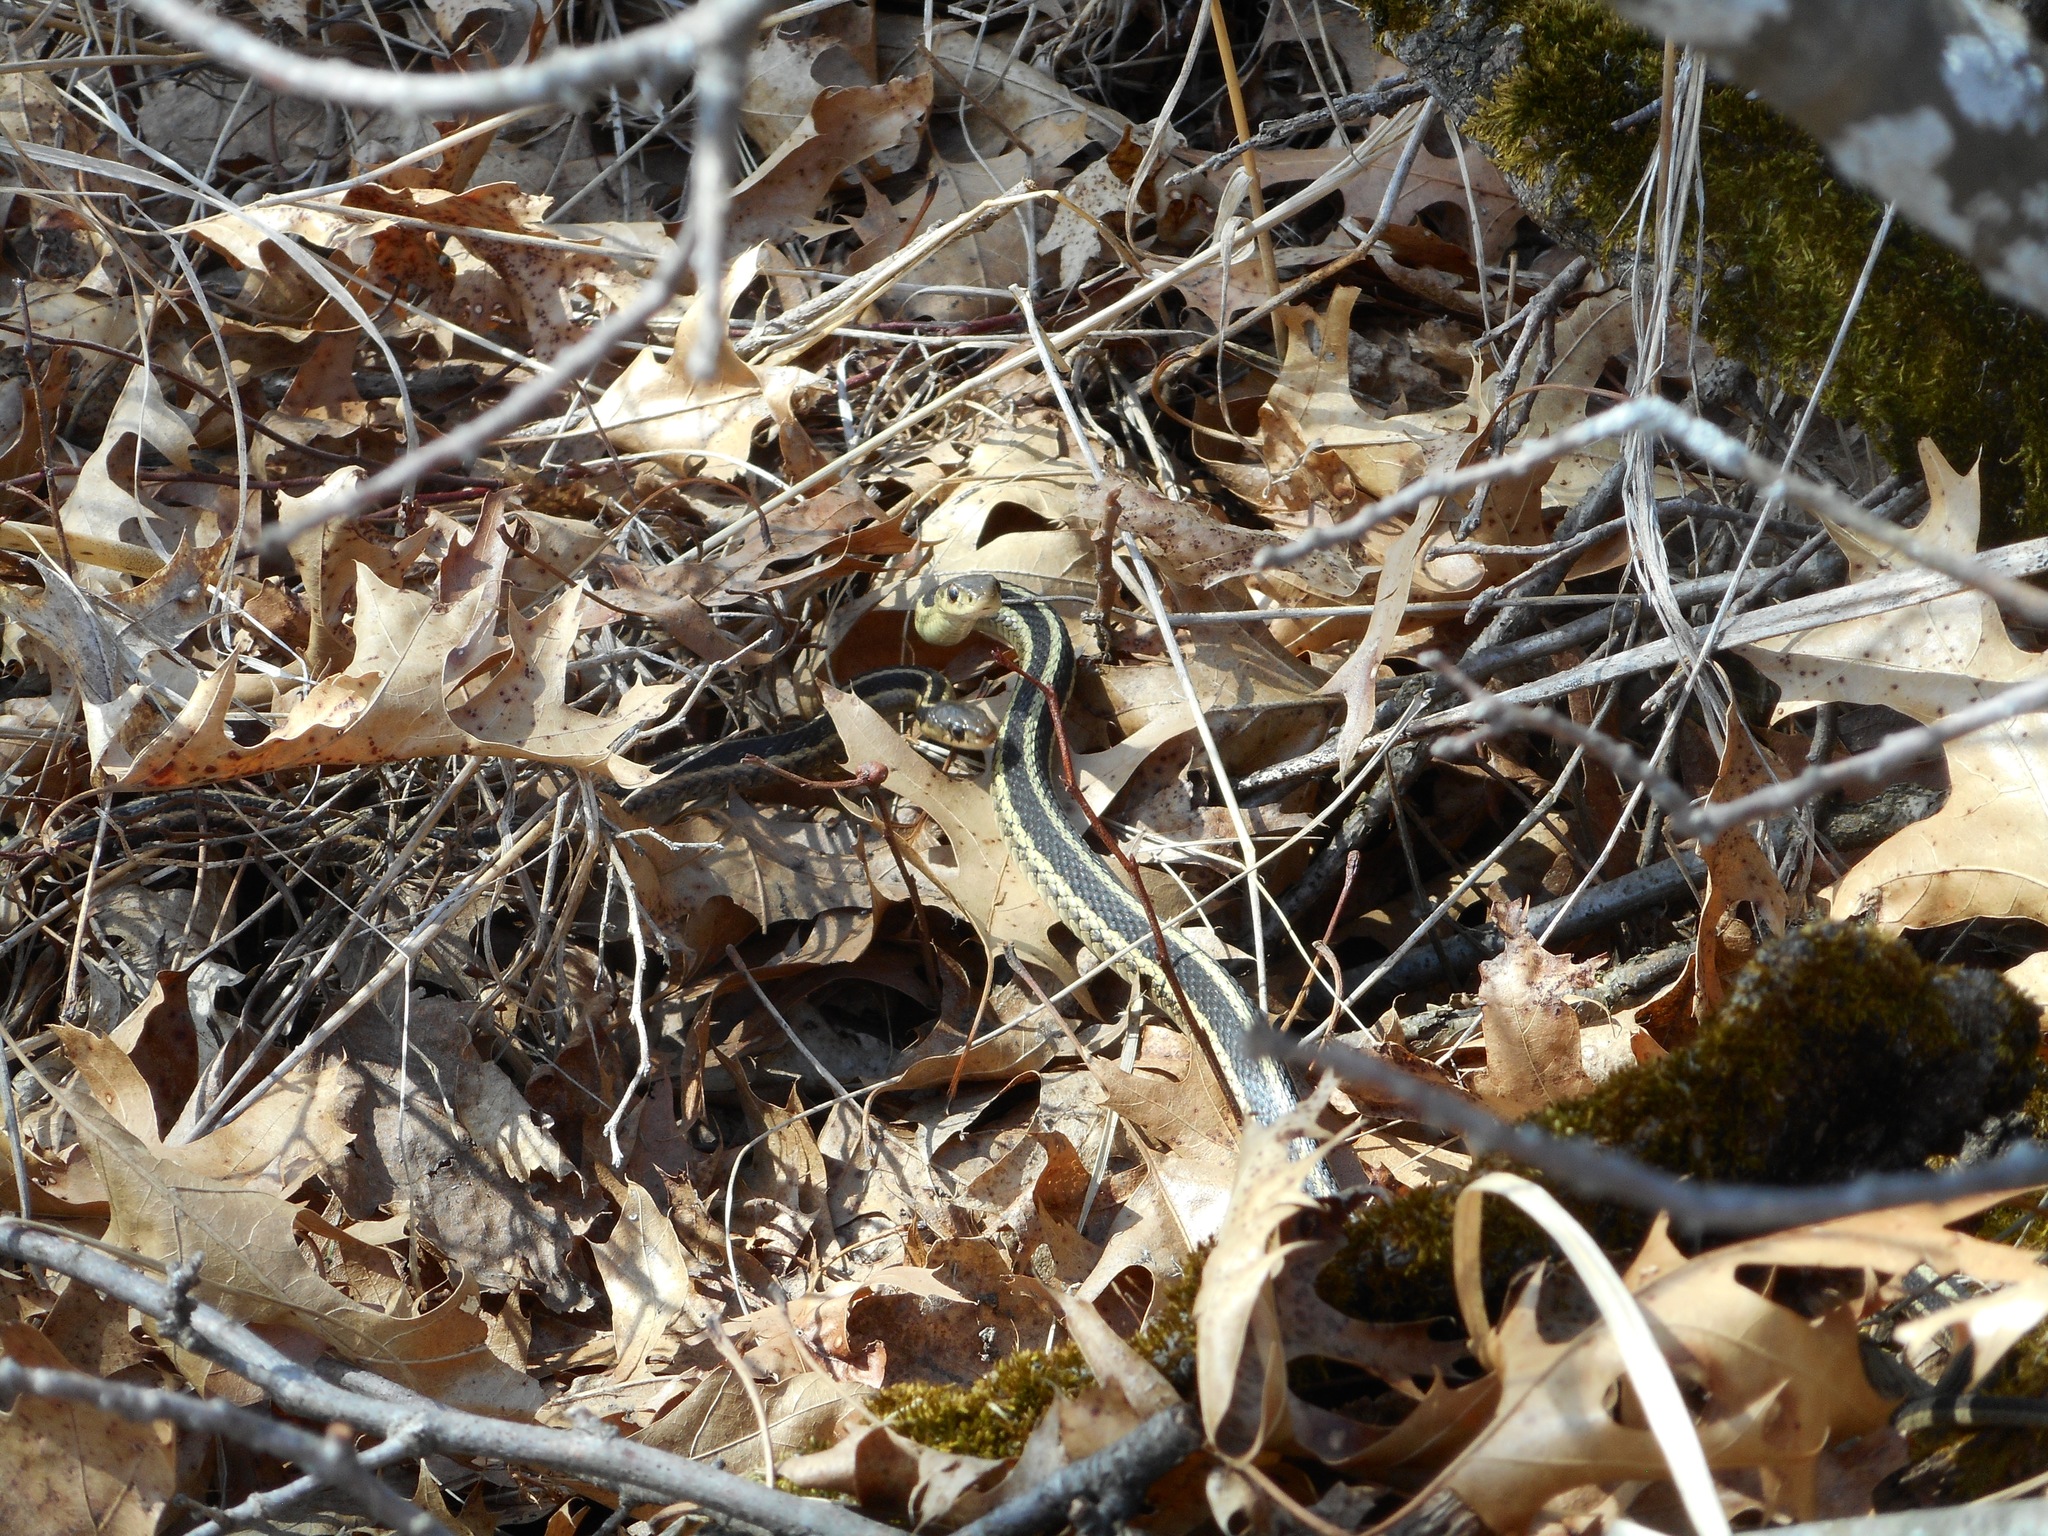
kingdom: Animalia
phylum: Chordata
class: Squamata
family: Colubridae
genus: Thamnophis
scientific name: Thamnophis sirtalis
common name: Common garter snake
